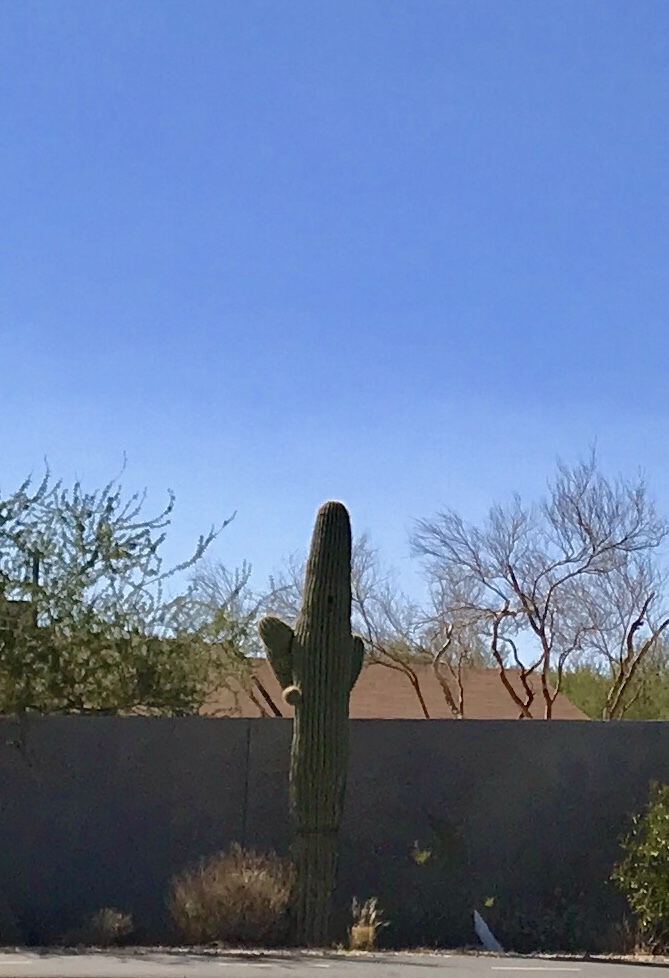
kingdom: Plantae
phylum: Tracheophyta
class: Magnoliopsida
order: Caryophyllales
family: Cactaceae
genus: Carnegiea
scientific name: Carnegiea gigantea
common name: Saguaro
